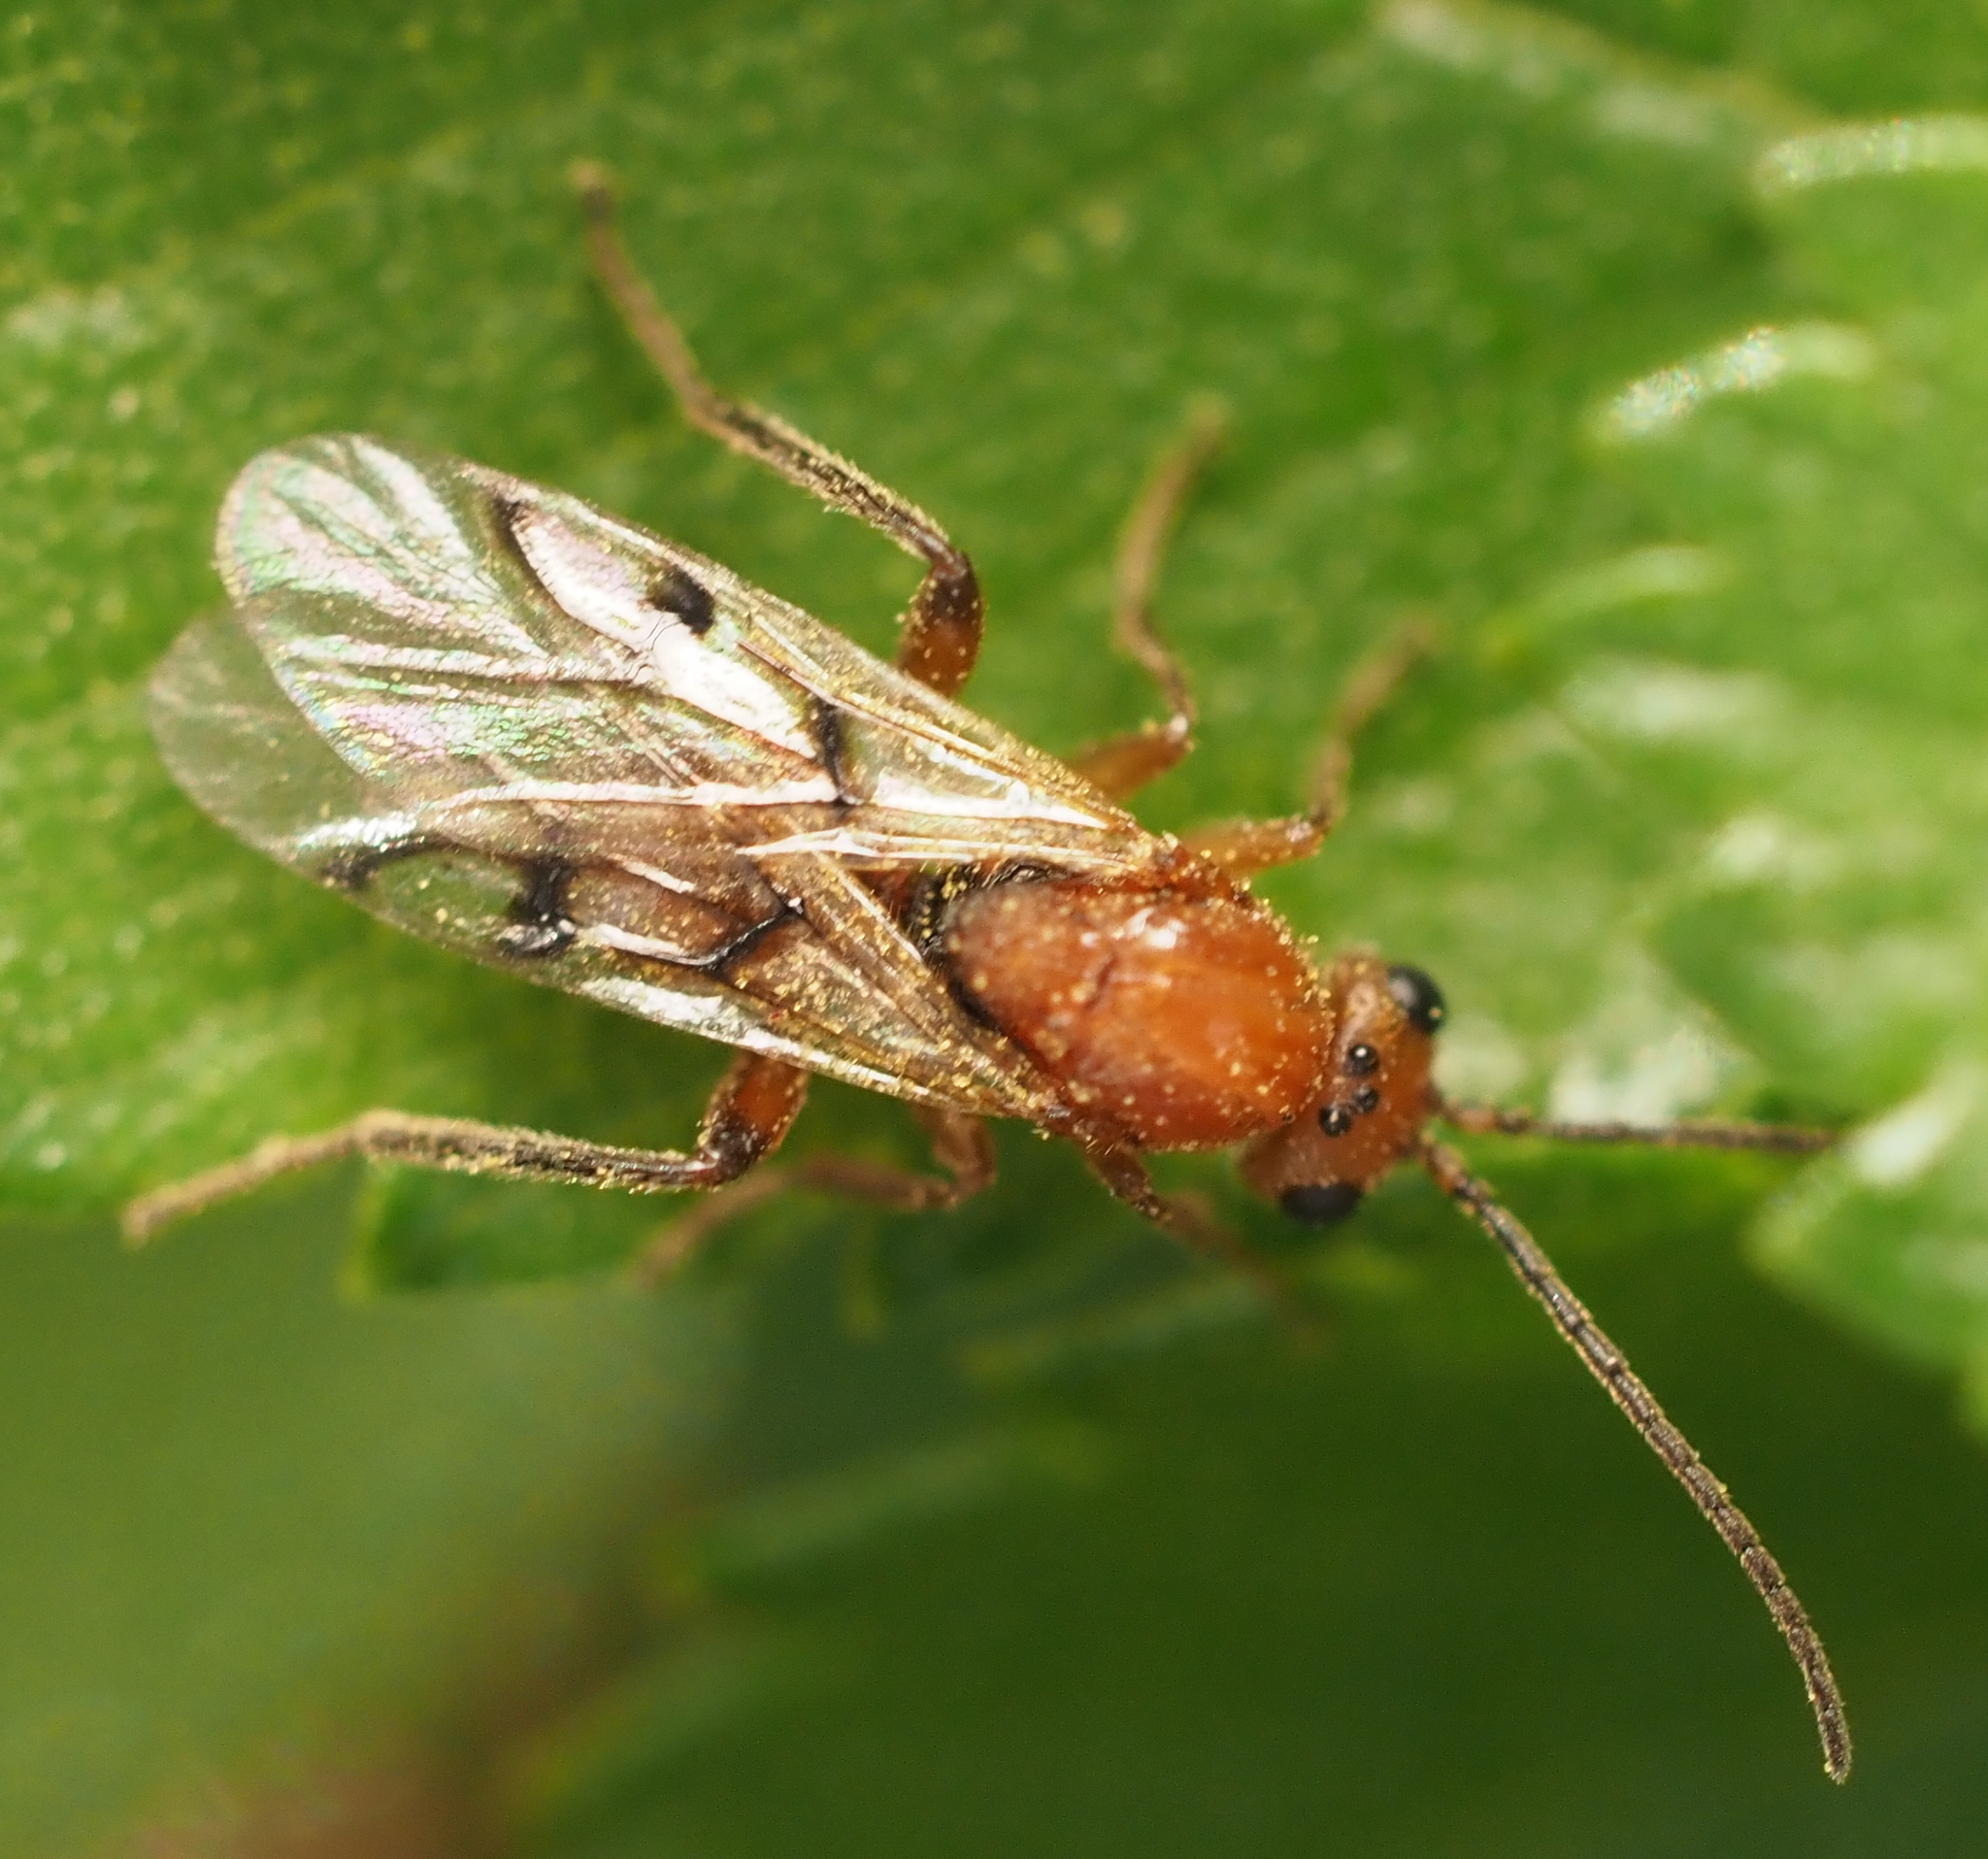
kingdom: Animalia
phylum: Arthropoda
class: Insecta
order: Hymenoptera
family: Cynipidae
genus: Belonocnema
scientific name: Belonocnema kinseyi
